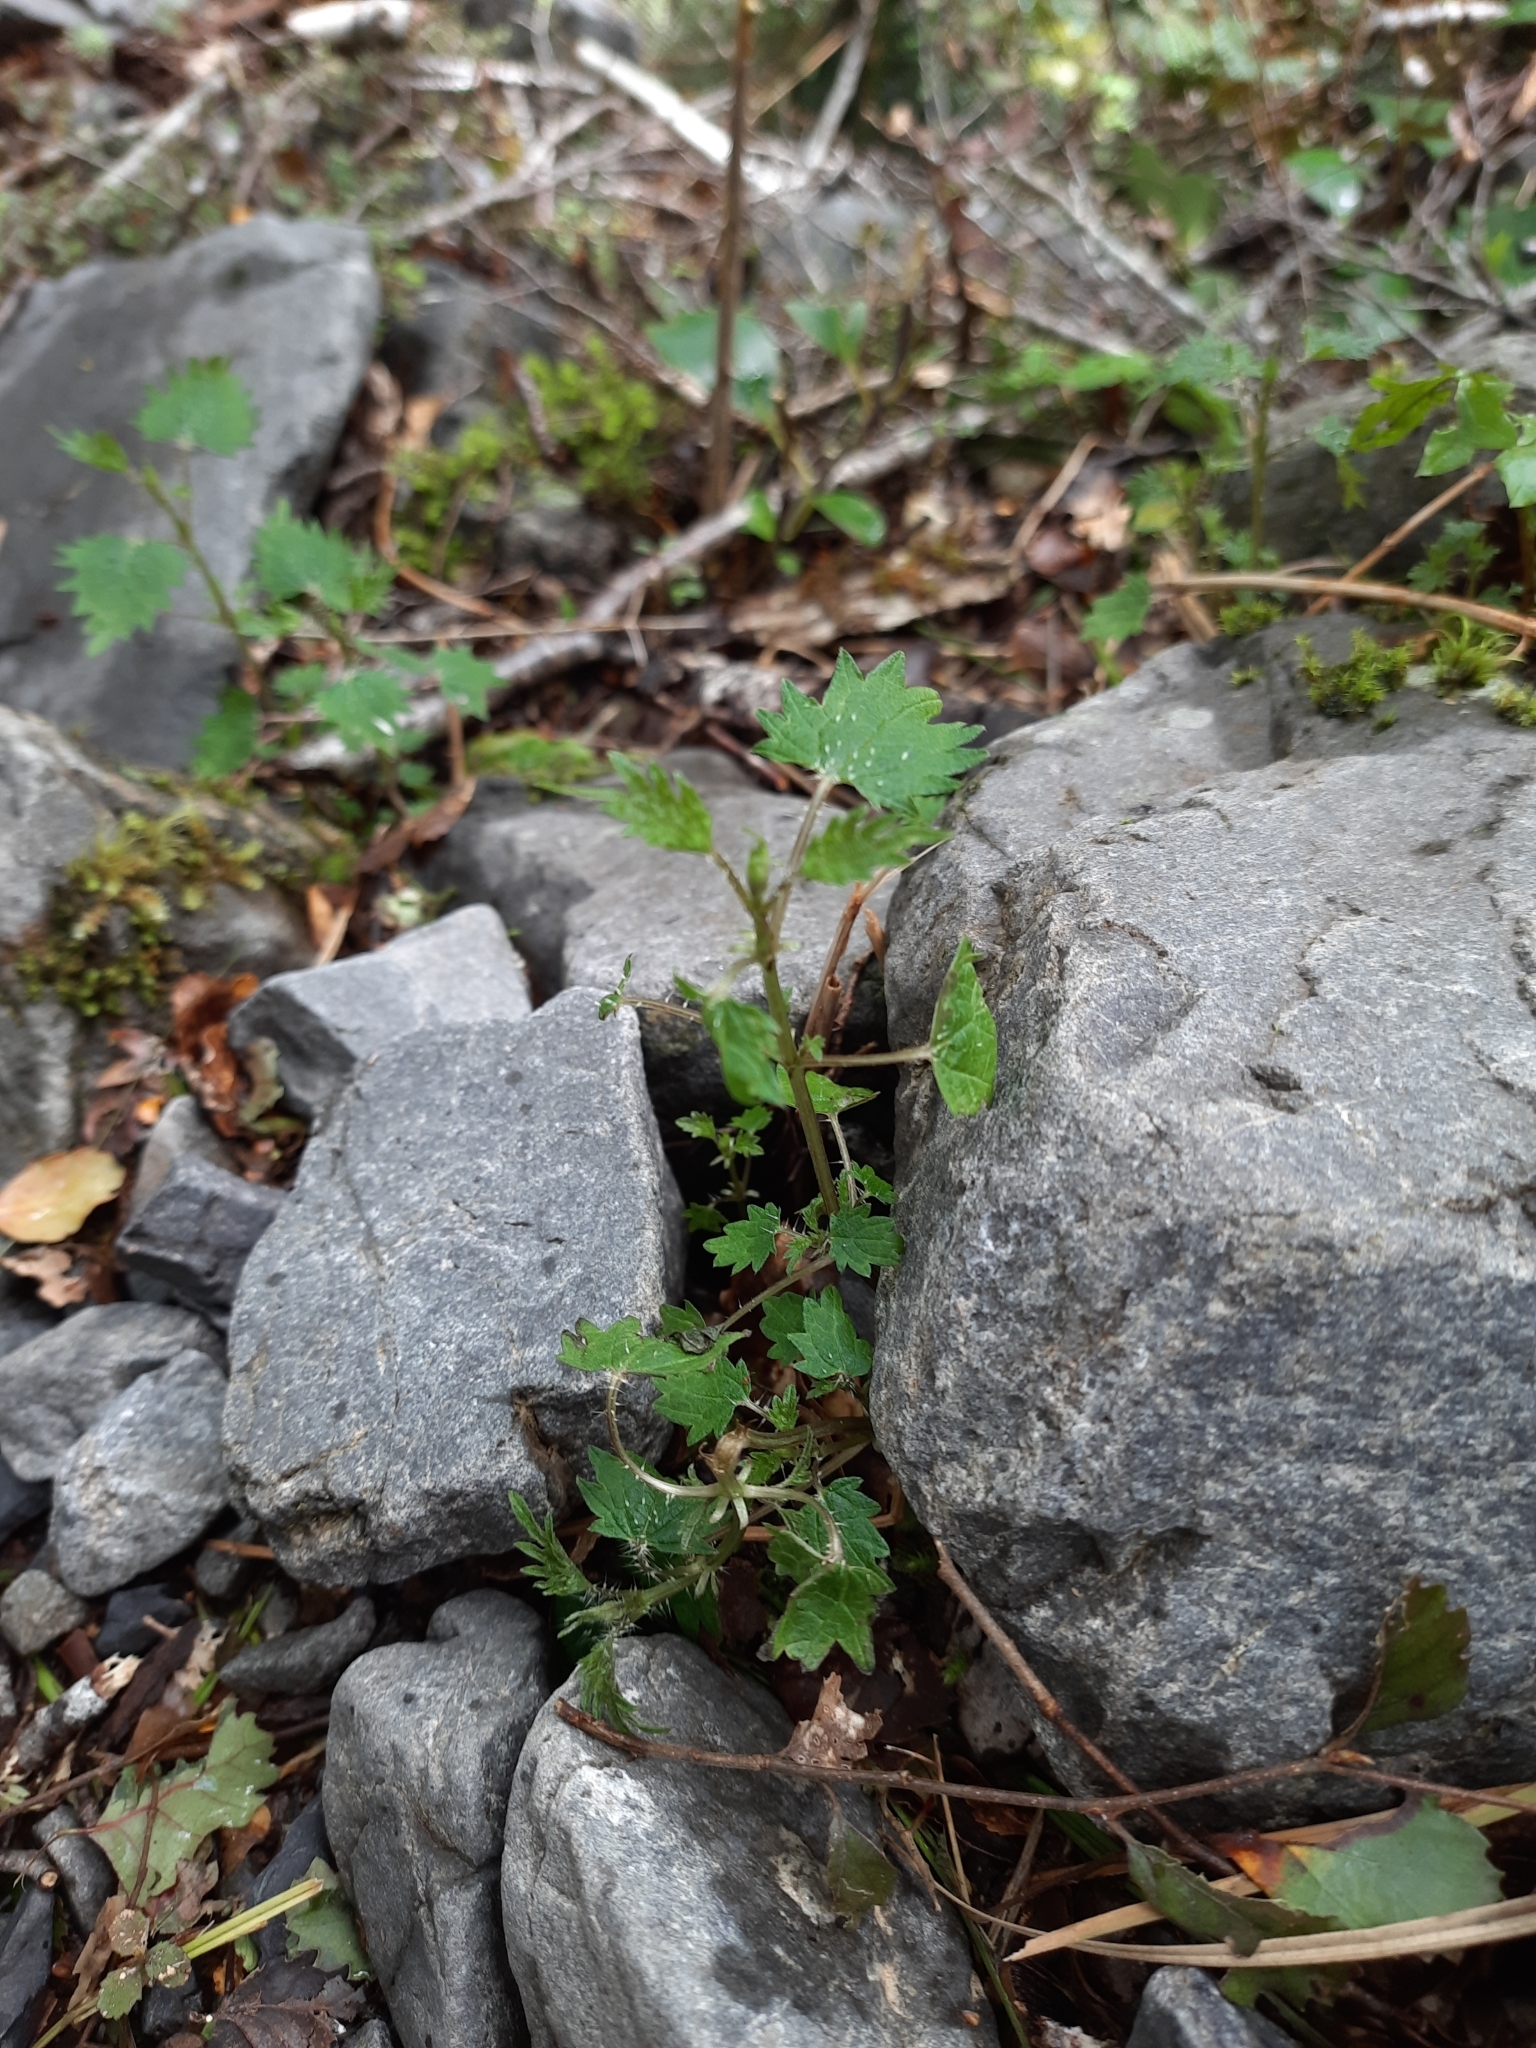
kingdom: Plantae
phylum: Tracheophyta
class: Magnoliopsida
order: Rosales
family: Urticaceae
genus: Urtica
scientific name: Urtica sykesii
